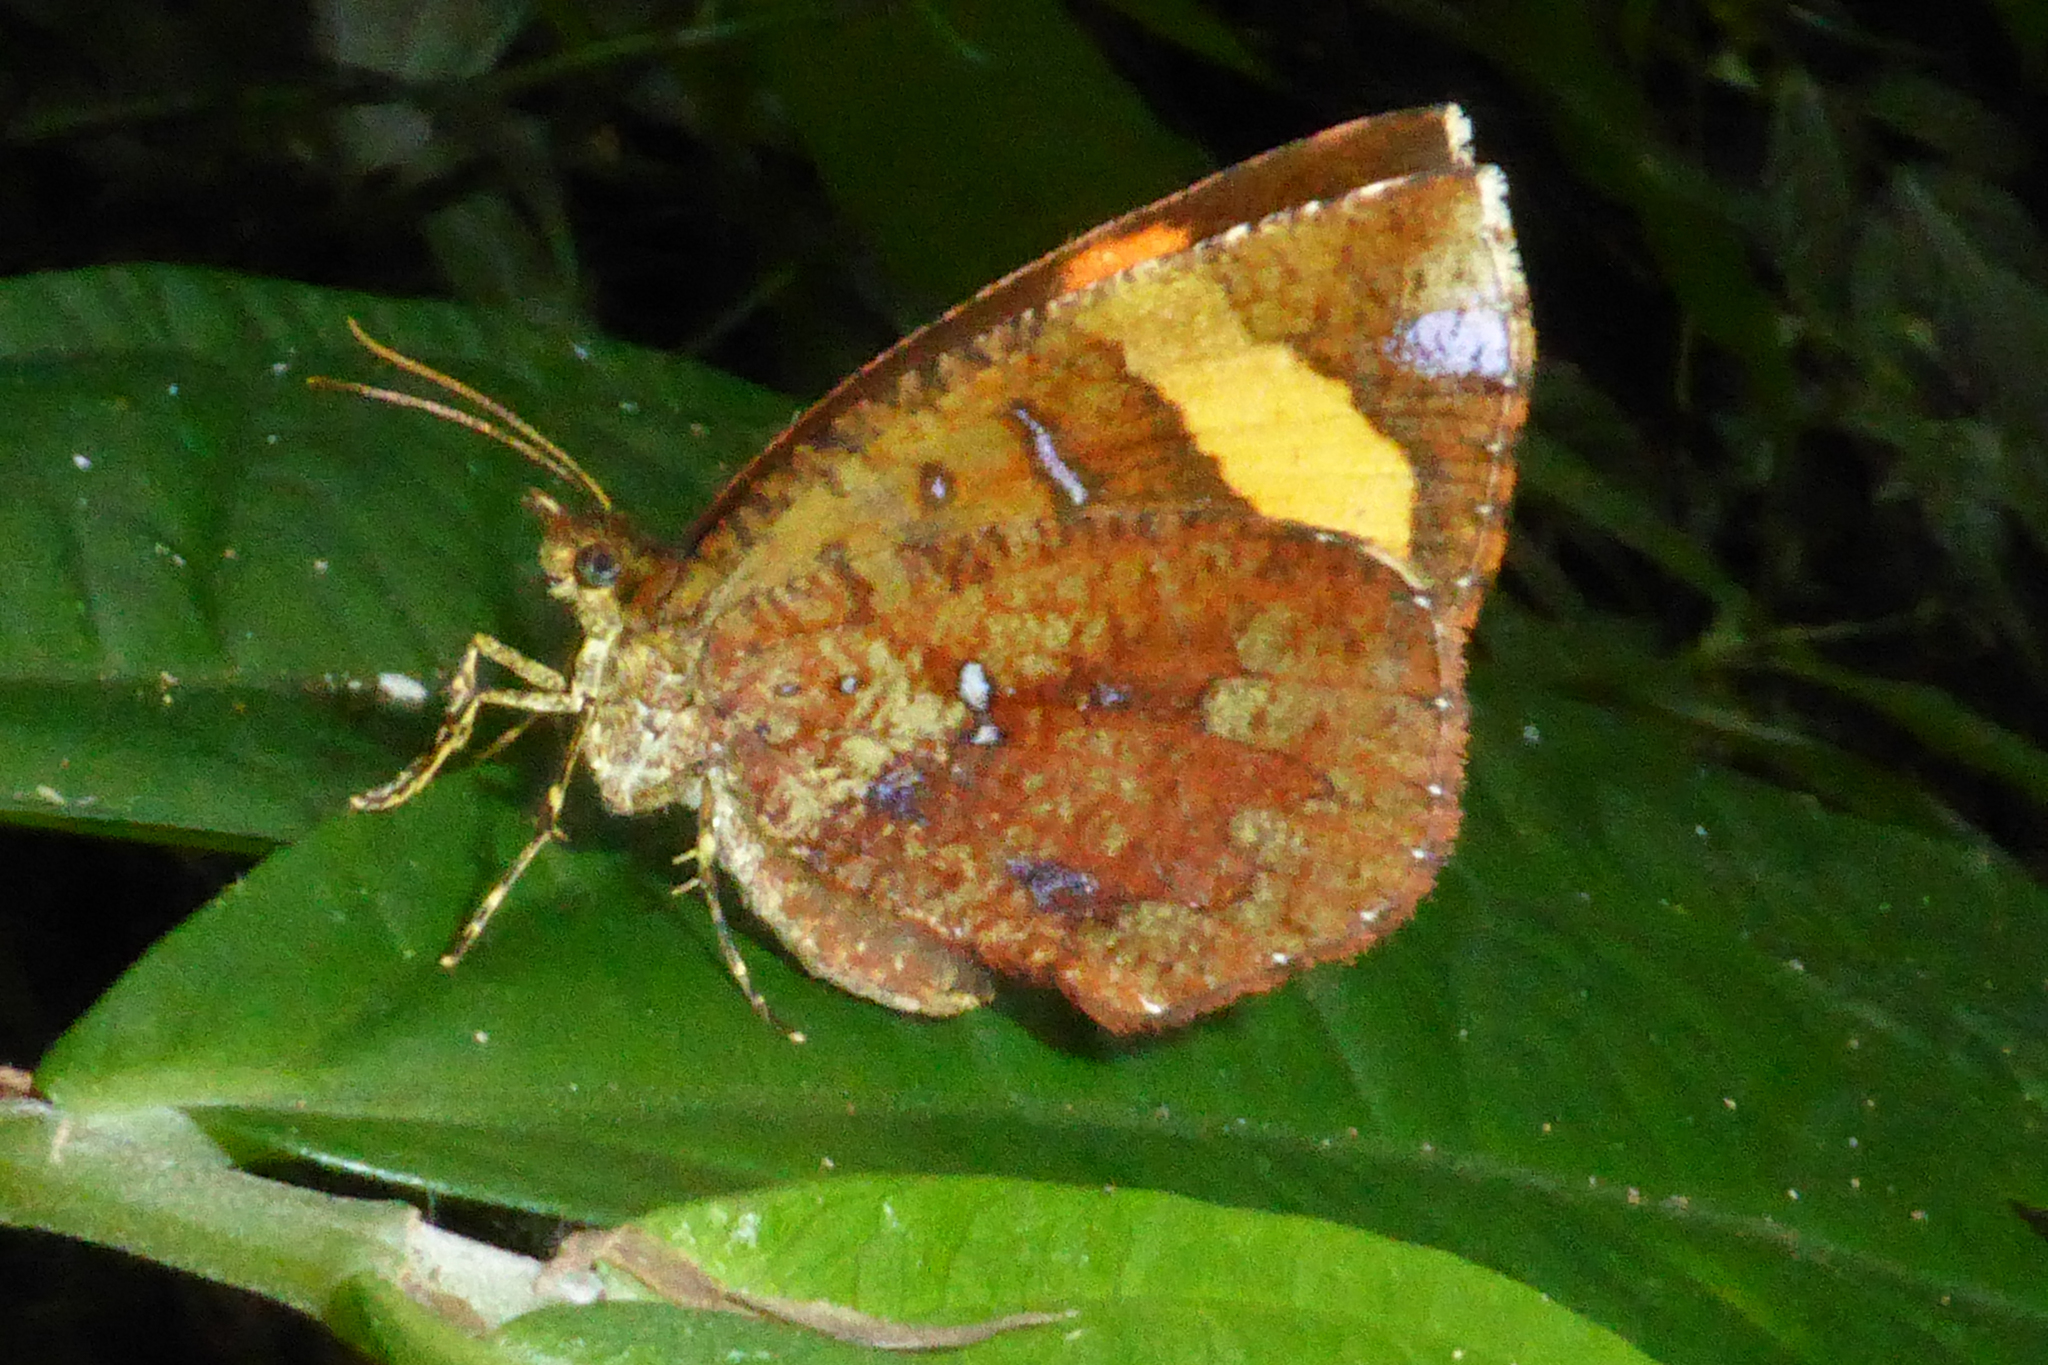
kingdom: Animalia
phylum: Arthropoda
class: Insecta
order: Lepidoptera
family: Callidulidae
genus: Petavia
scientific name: Petavia attenuata
